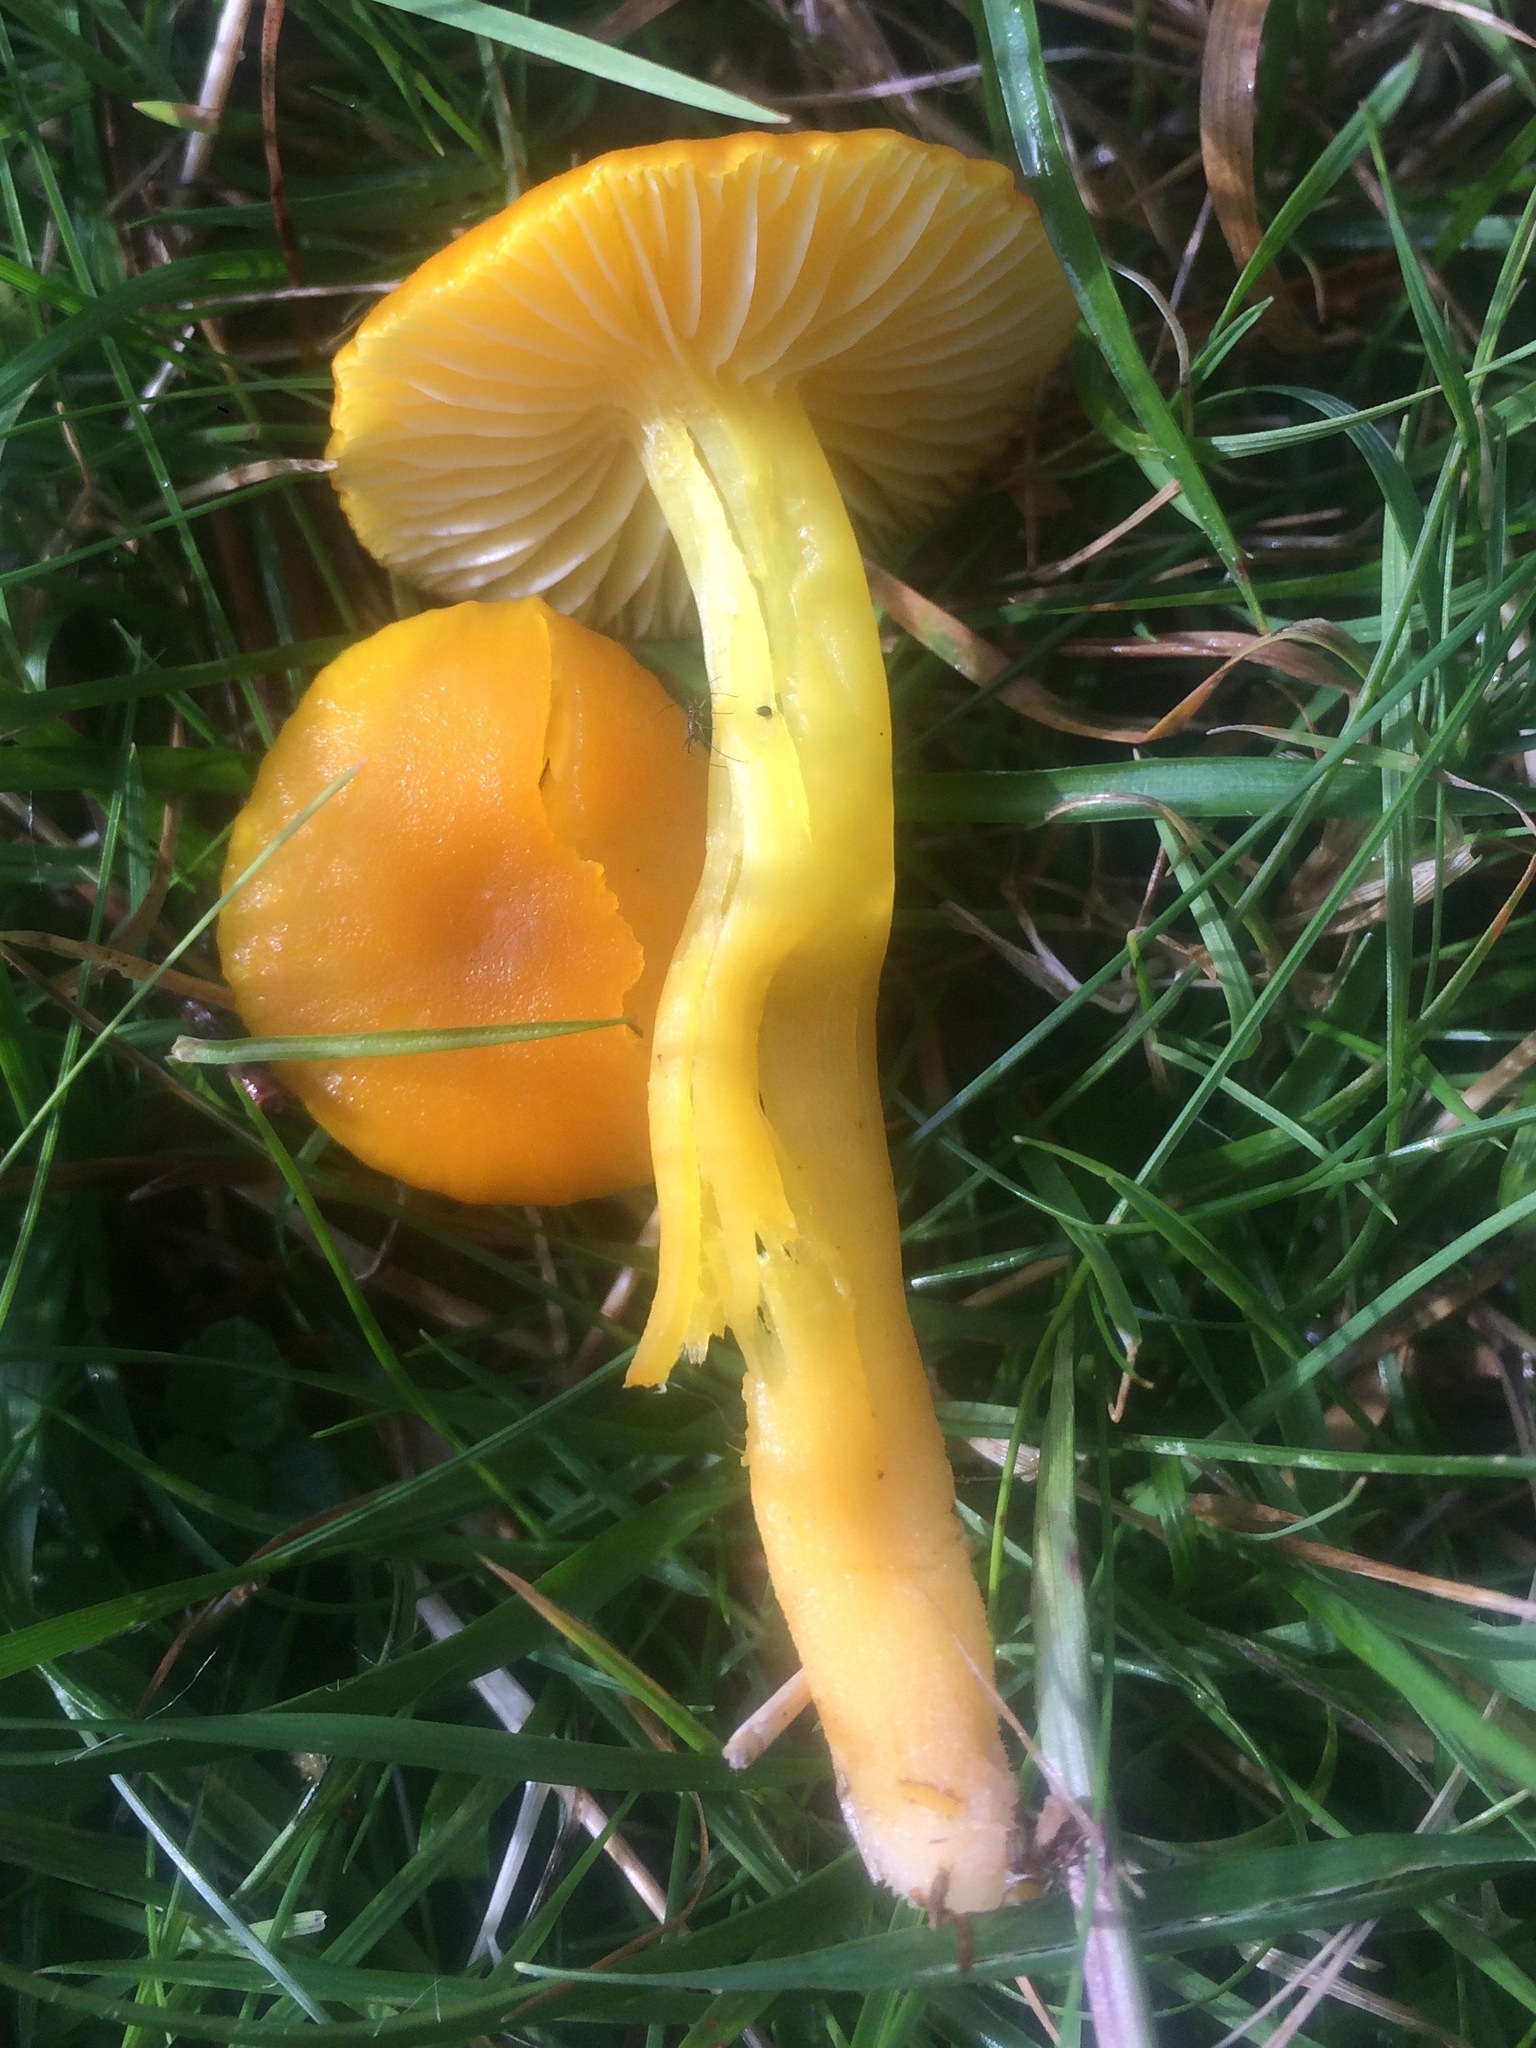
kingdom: Fungi
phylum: Basidiomycota
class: Agaricomycetes
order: Agaricales
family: Hygrophoraceae
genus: Hygrocybe
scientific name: Hygrocybe ceracea
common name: Butter waxcap
